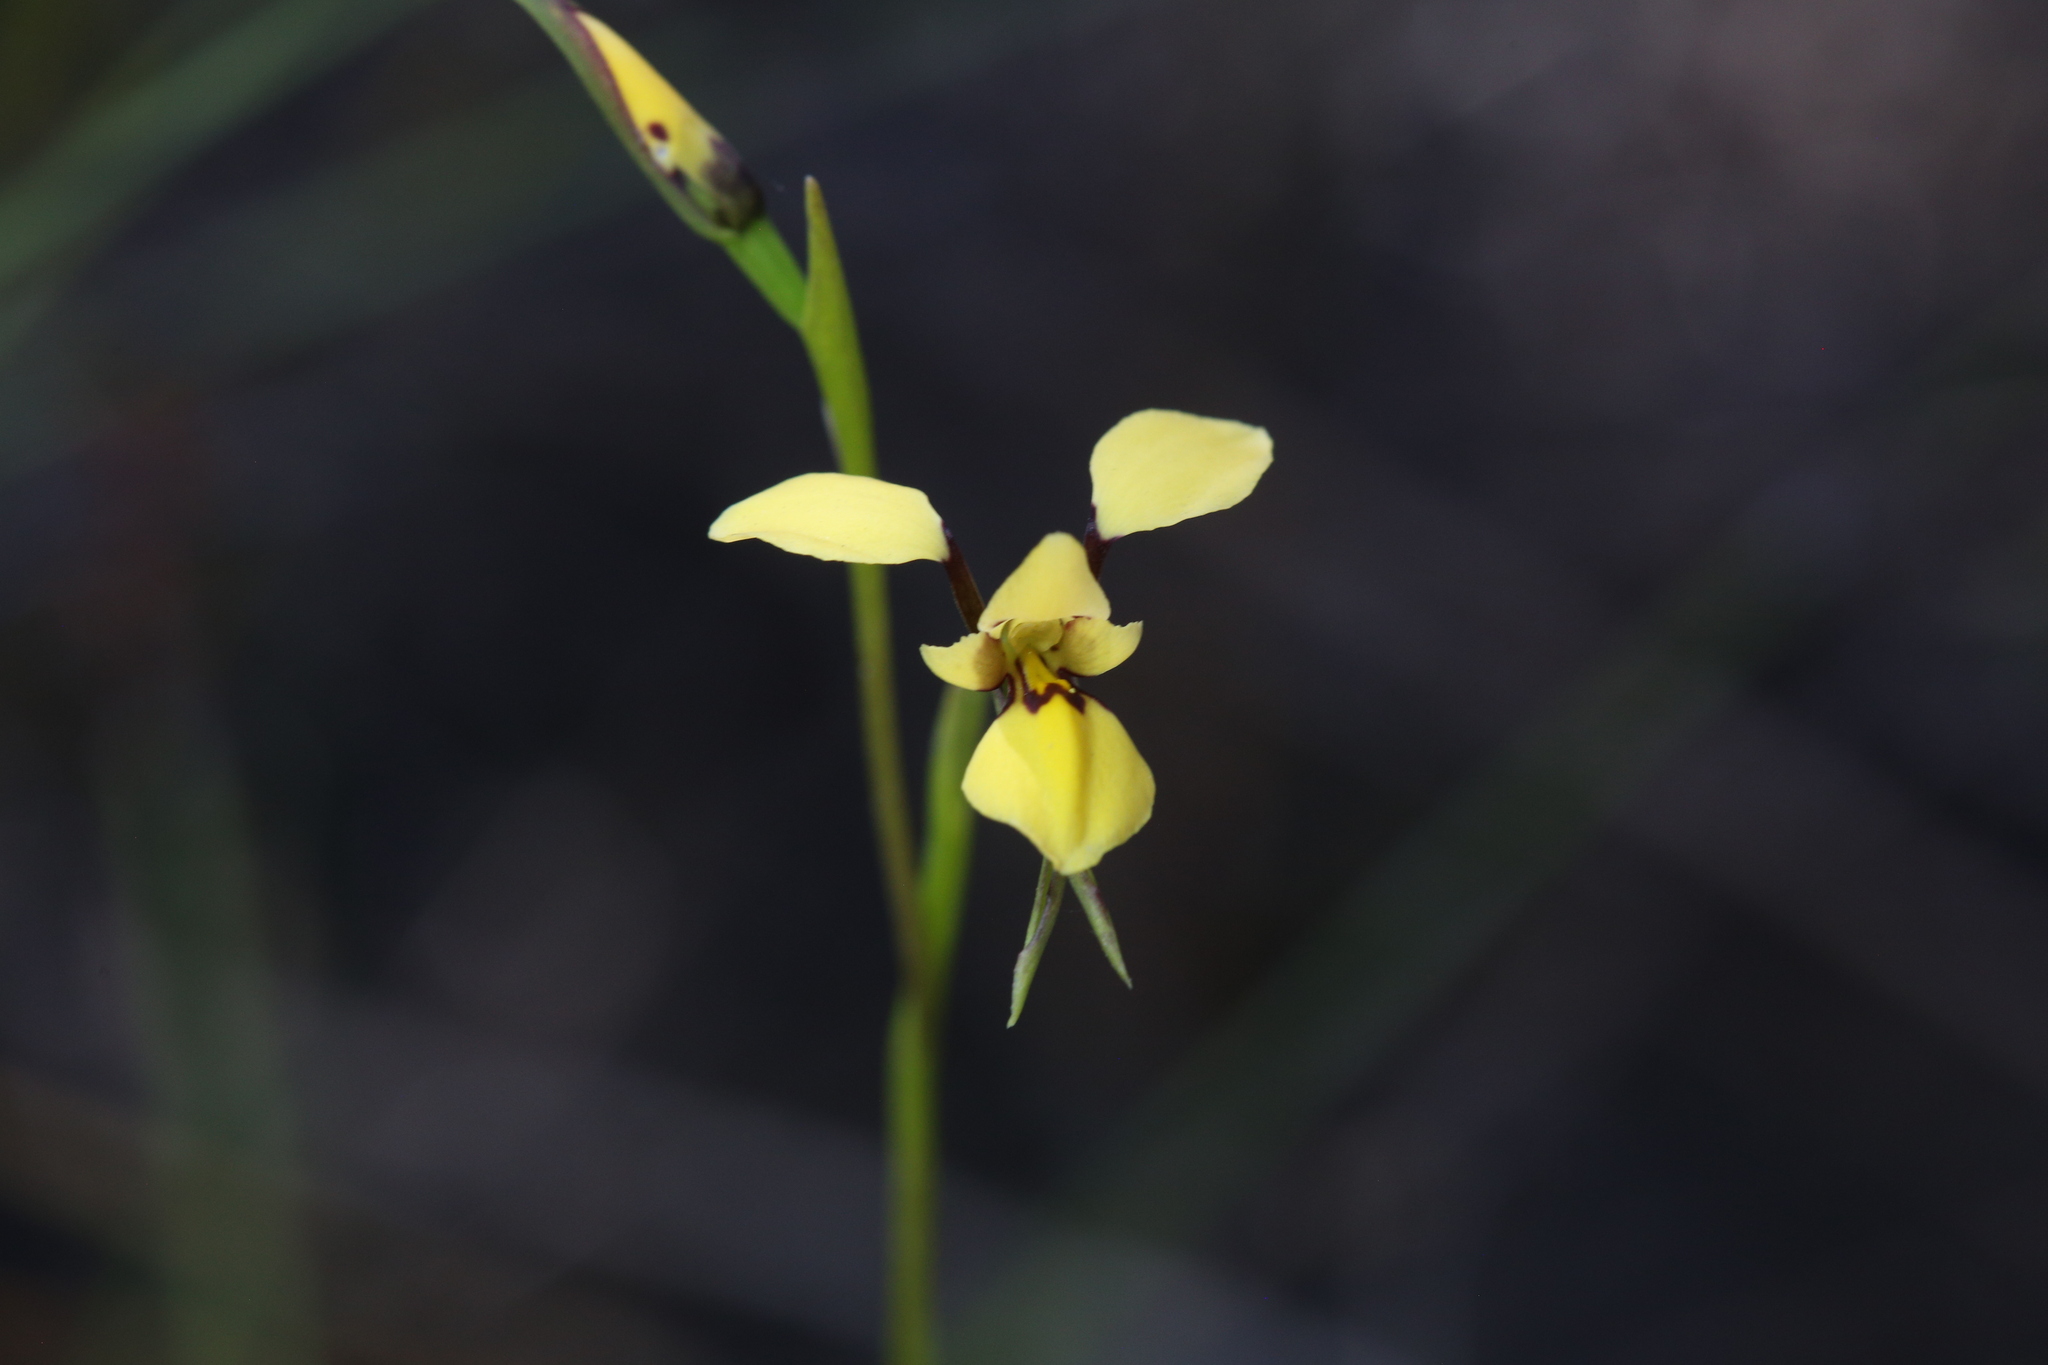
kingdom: Plantae
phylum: Tracheophyta
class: Liliopsida
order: Asparagales
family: Orchidaceae
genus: Diuris
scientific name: Diuris heberlei
